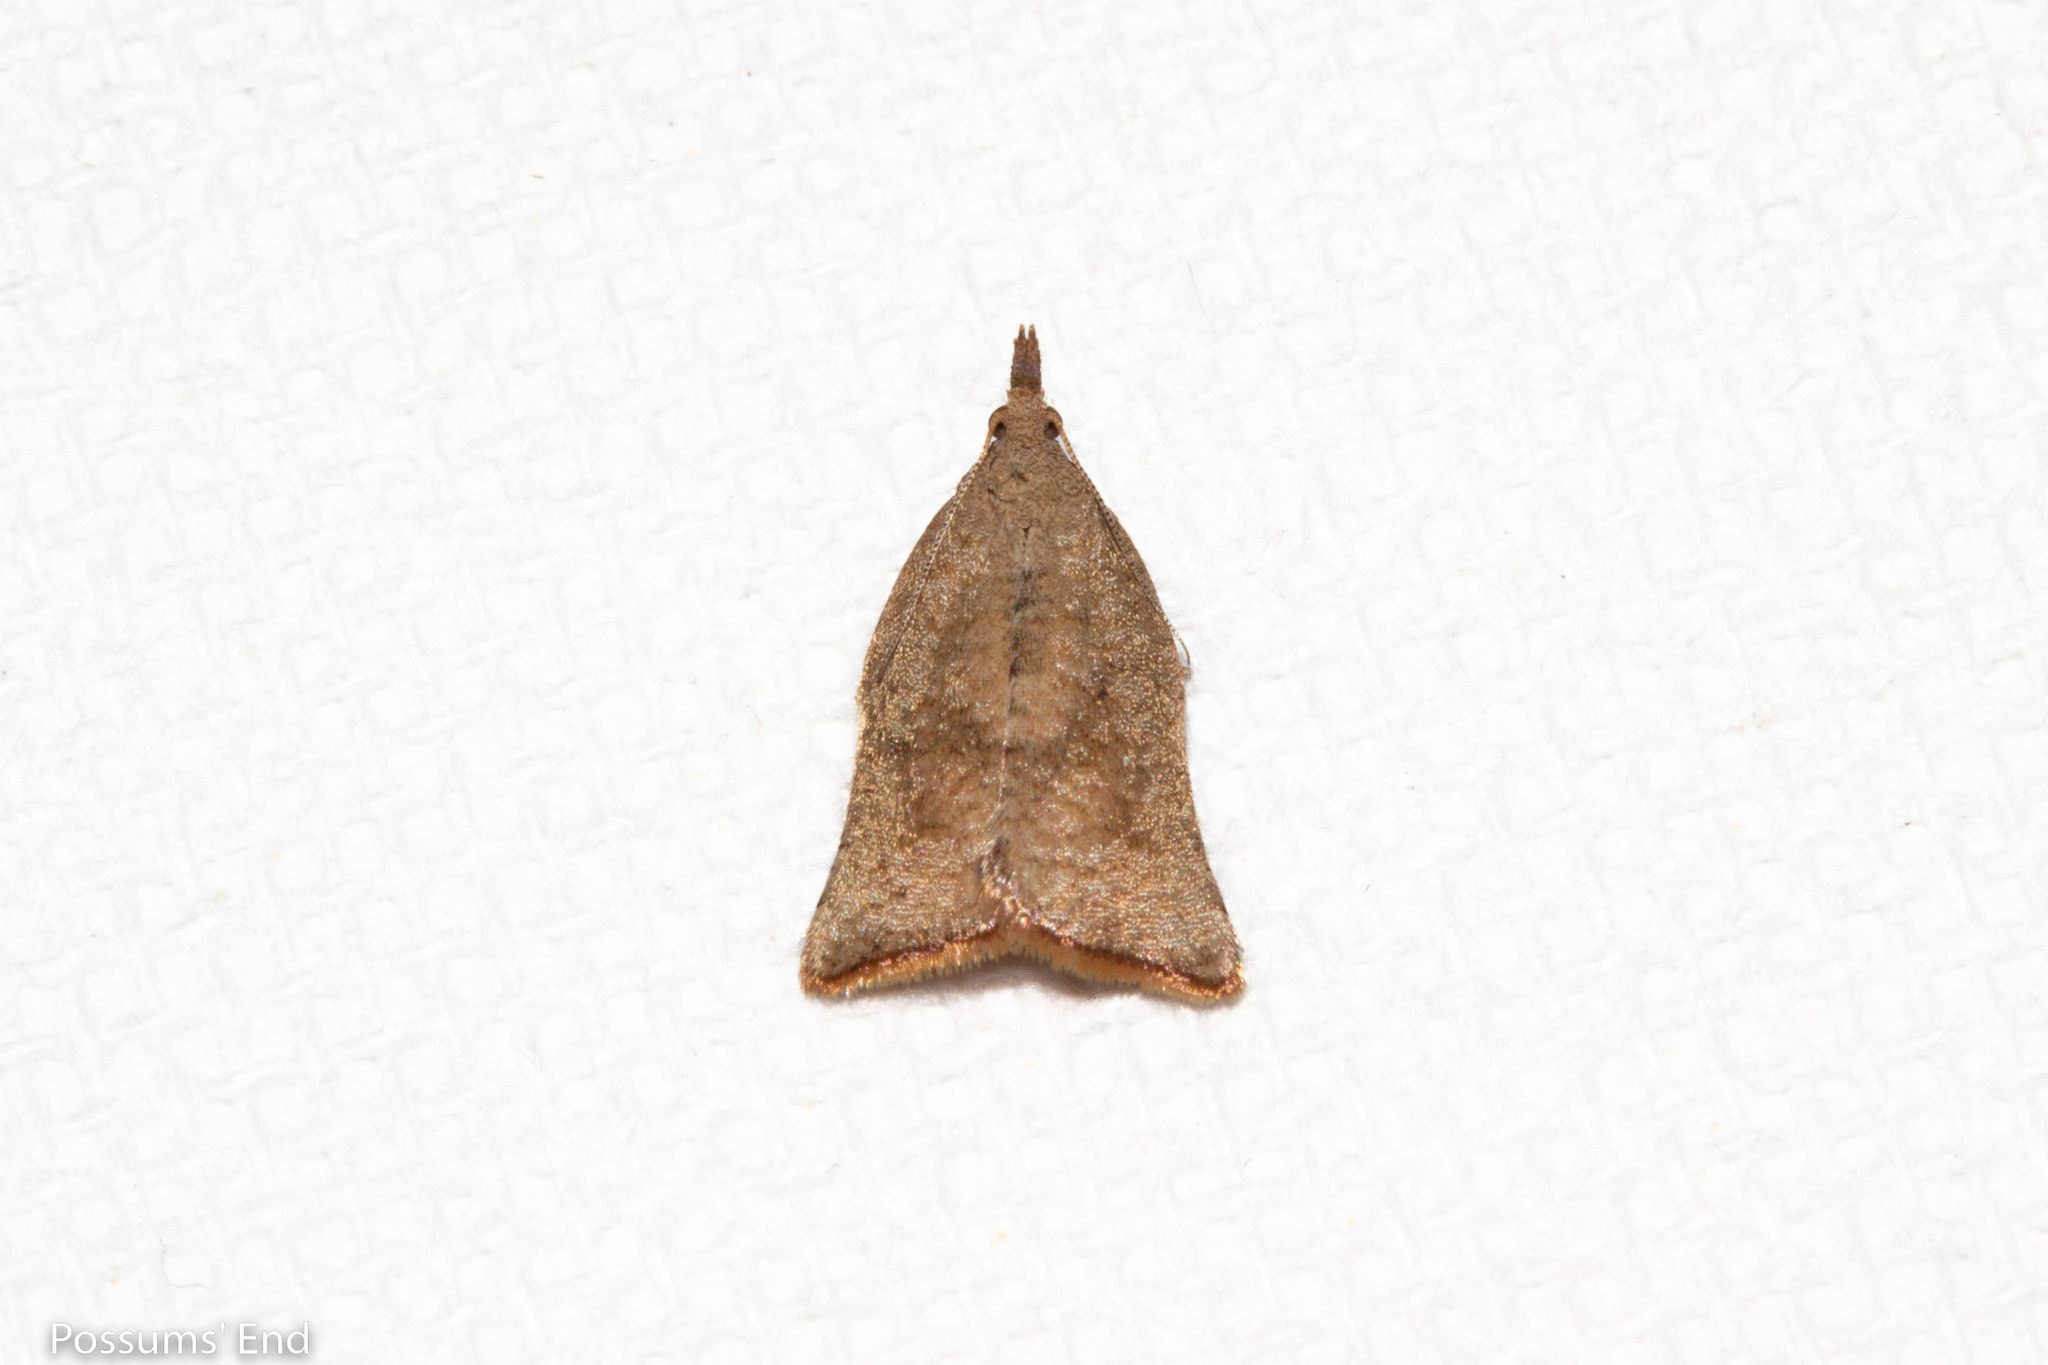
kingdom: Animalia
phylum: Arthropoda
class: Insecta
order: Lepidoptera
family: Tortricidae
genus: Catamacta
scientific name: Catamacta gavisana
